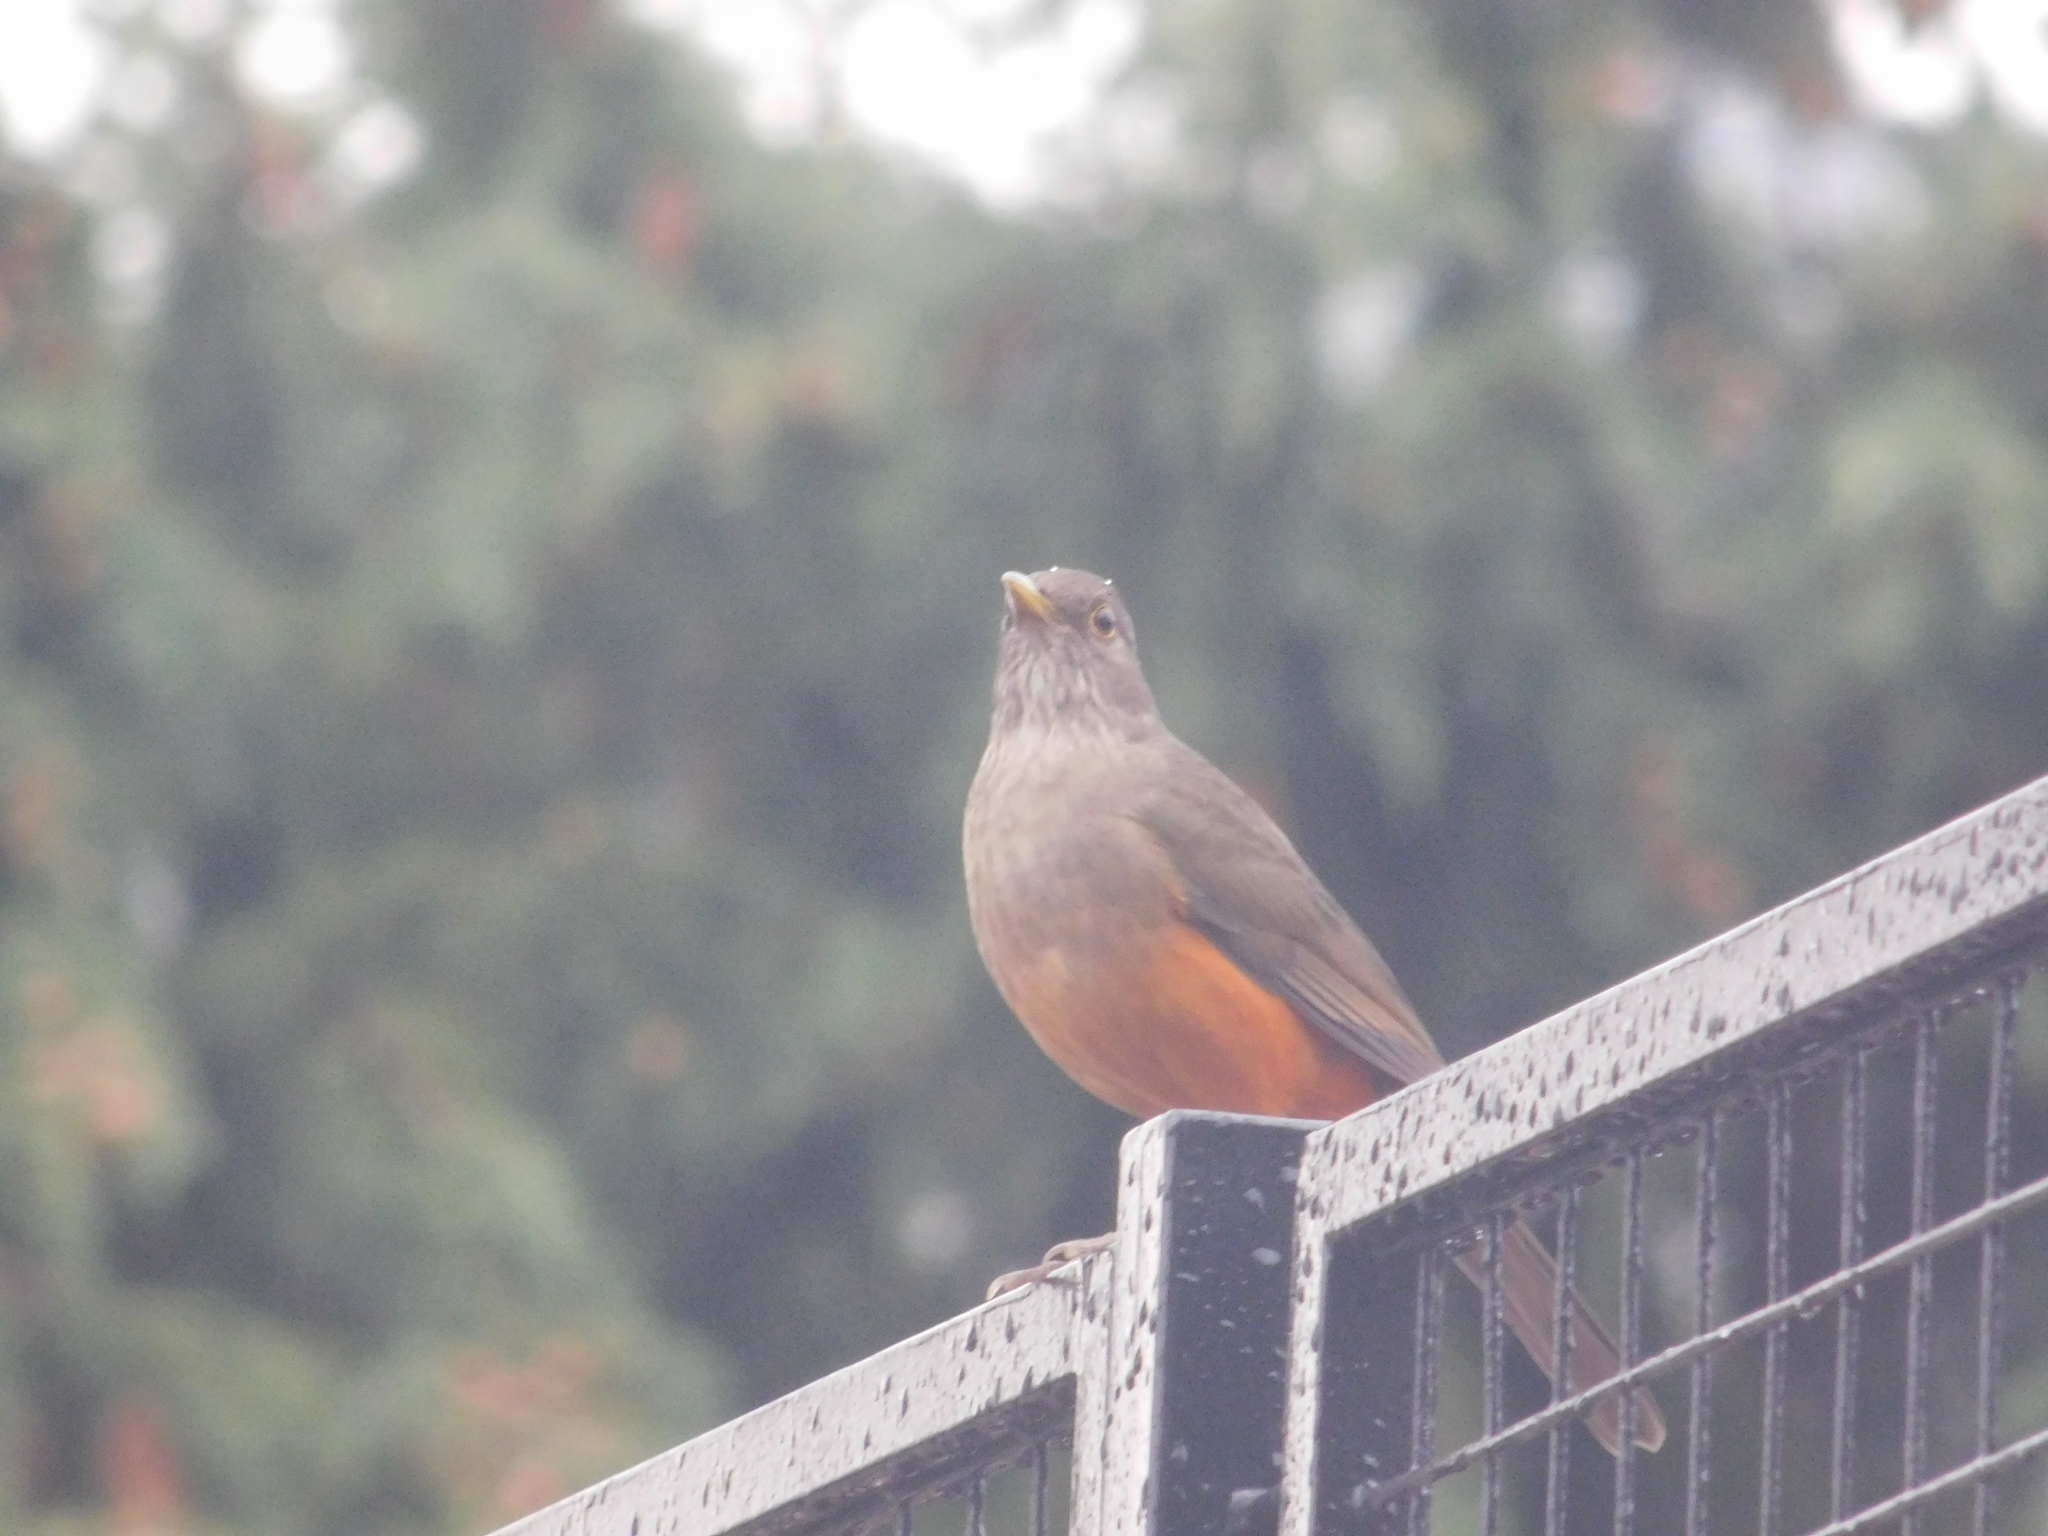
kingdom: Animalia
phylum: Chordata
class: Aves
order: Passeriformes
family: Turdidae
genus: Turdus
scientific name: Turdus rufiventris
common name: Rufous-bellied thrush
